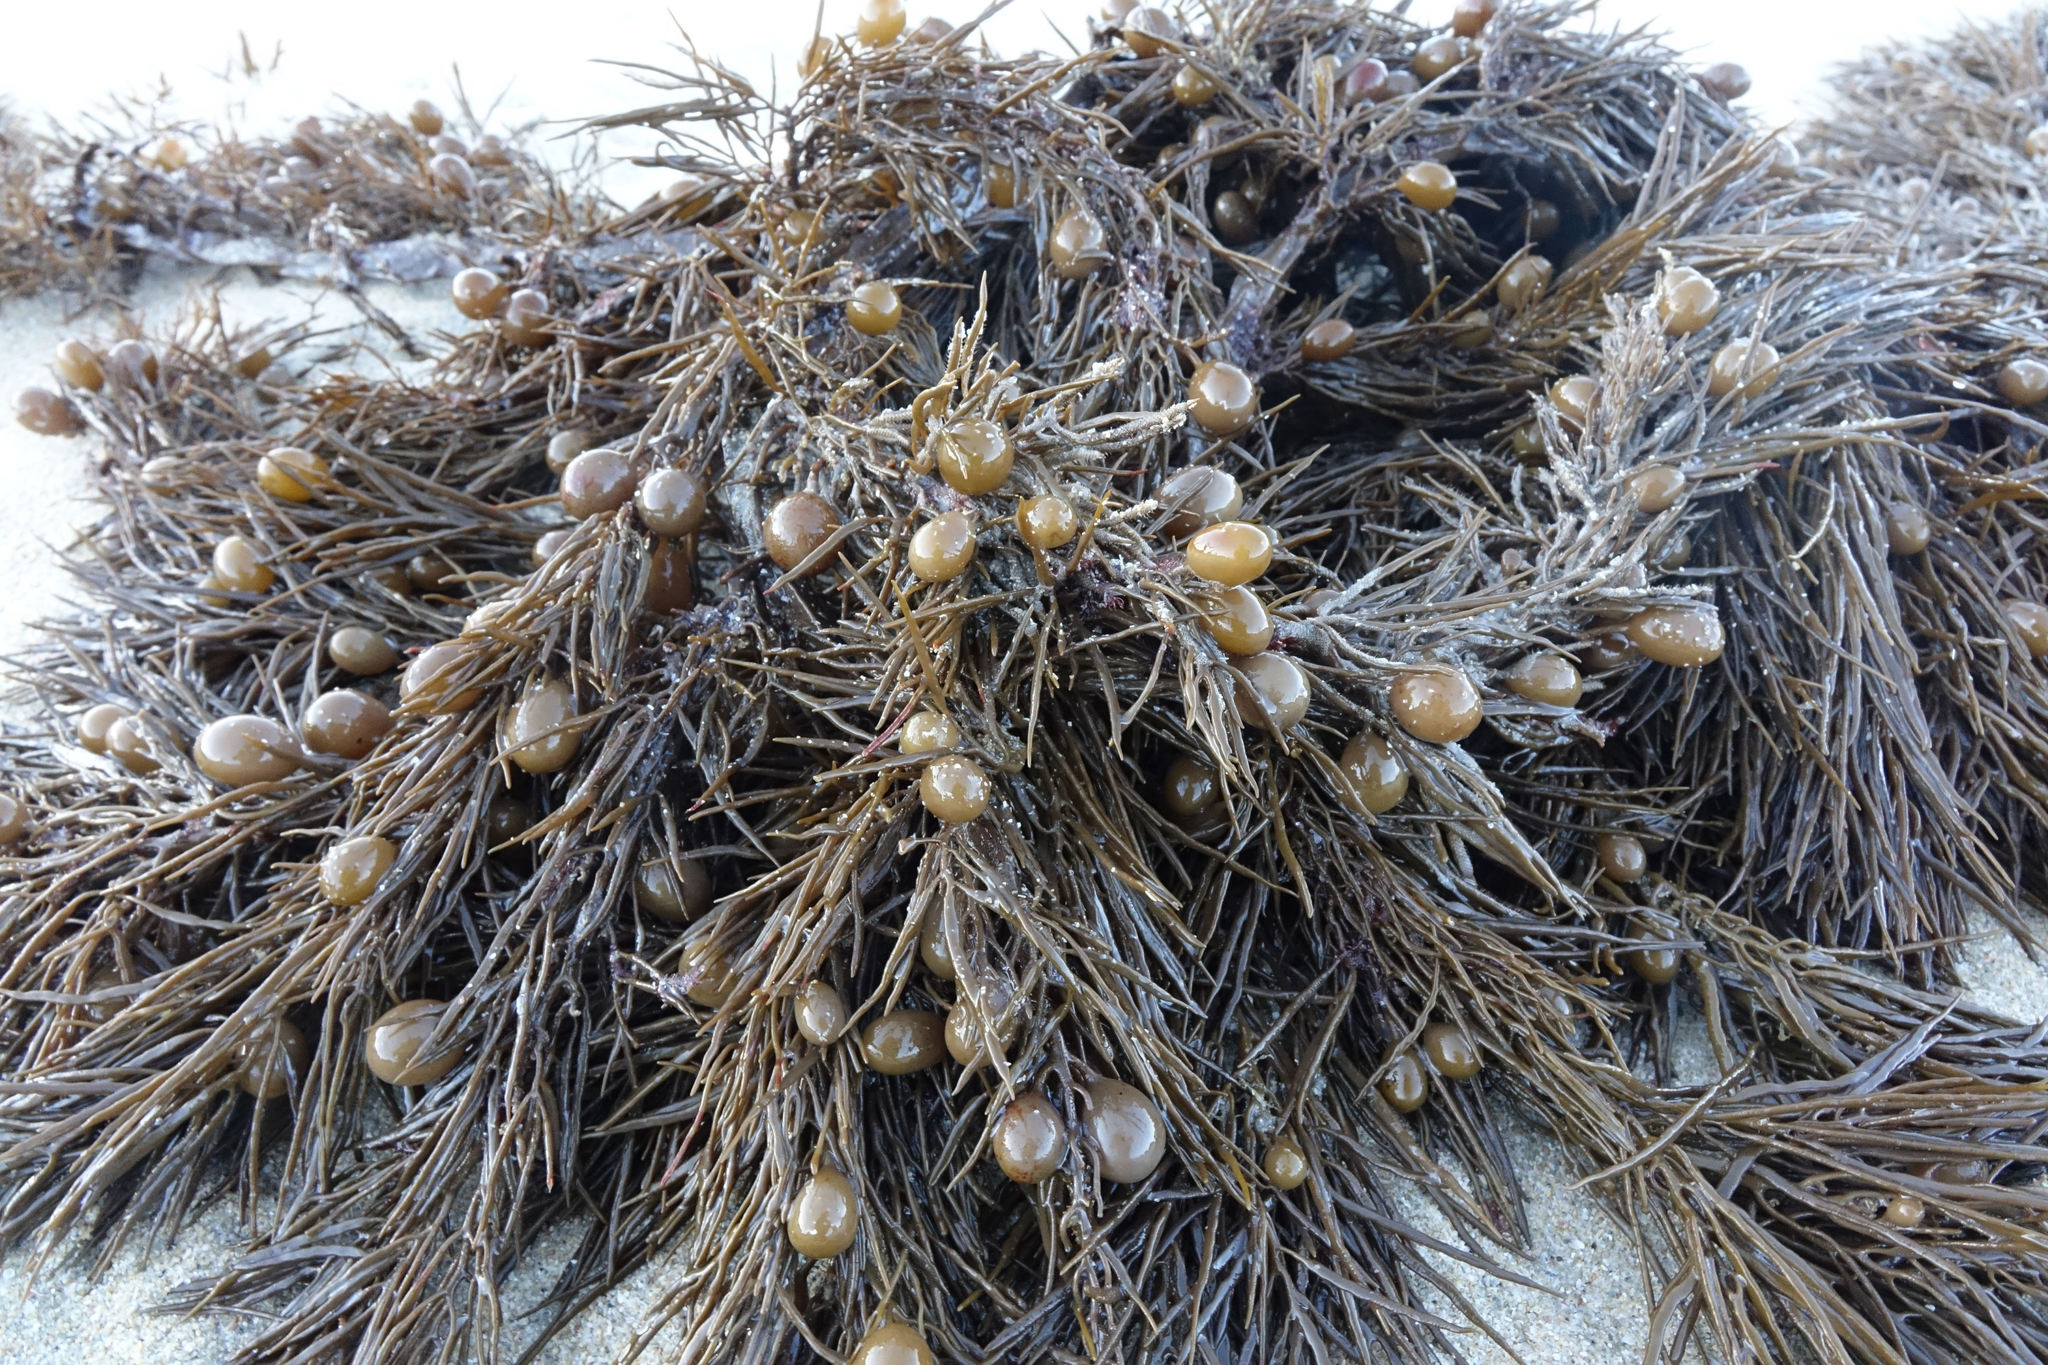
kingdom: Chromista
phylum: Ochrophyta
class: Phaeophyceae
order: Fucales
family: Sargassaceae
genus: Cystophora
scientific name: Cystophora retroflexa
